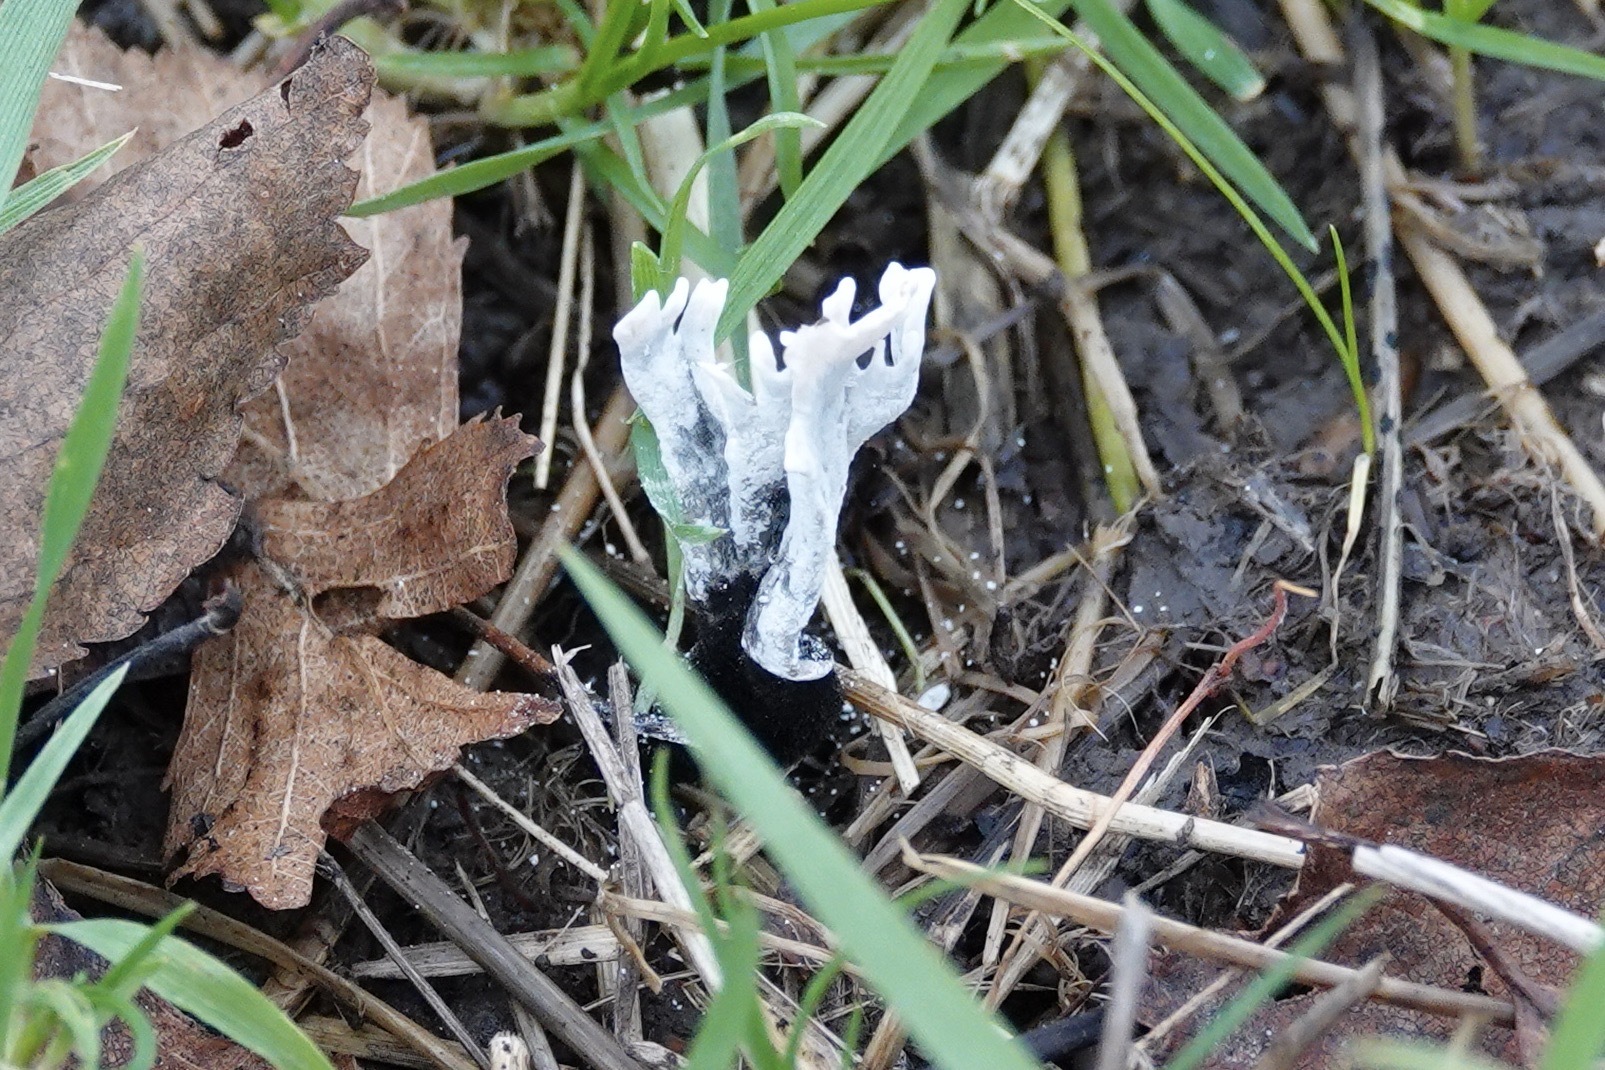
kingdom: Fungi
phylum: Ascomycota
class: Sordariomycetes
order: Xylariales
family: Xylariaceae
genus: Xylaria
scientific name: Xylaria hypoxylon
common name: Candle-snuff fungus
